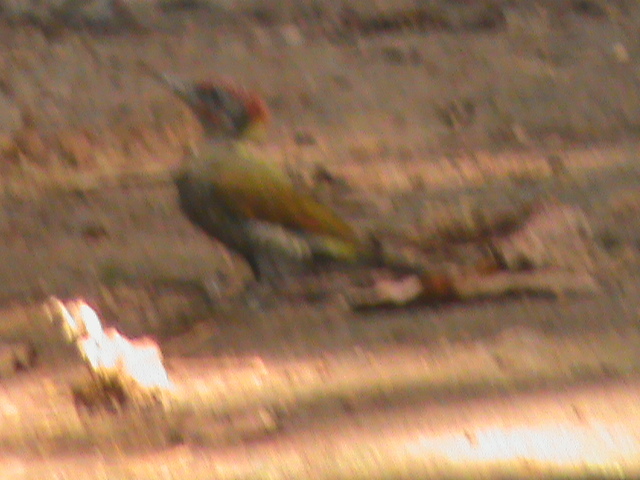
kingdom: Animalia
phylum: Chordata
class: Aves
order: Piciformes
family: Picidae
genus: Picus
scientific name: Picus chlorolophus
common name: Lesser yellownape
